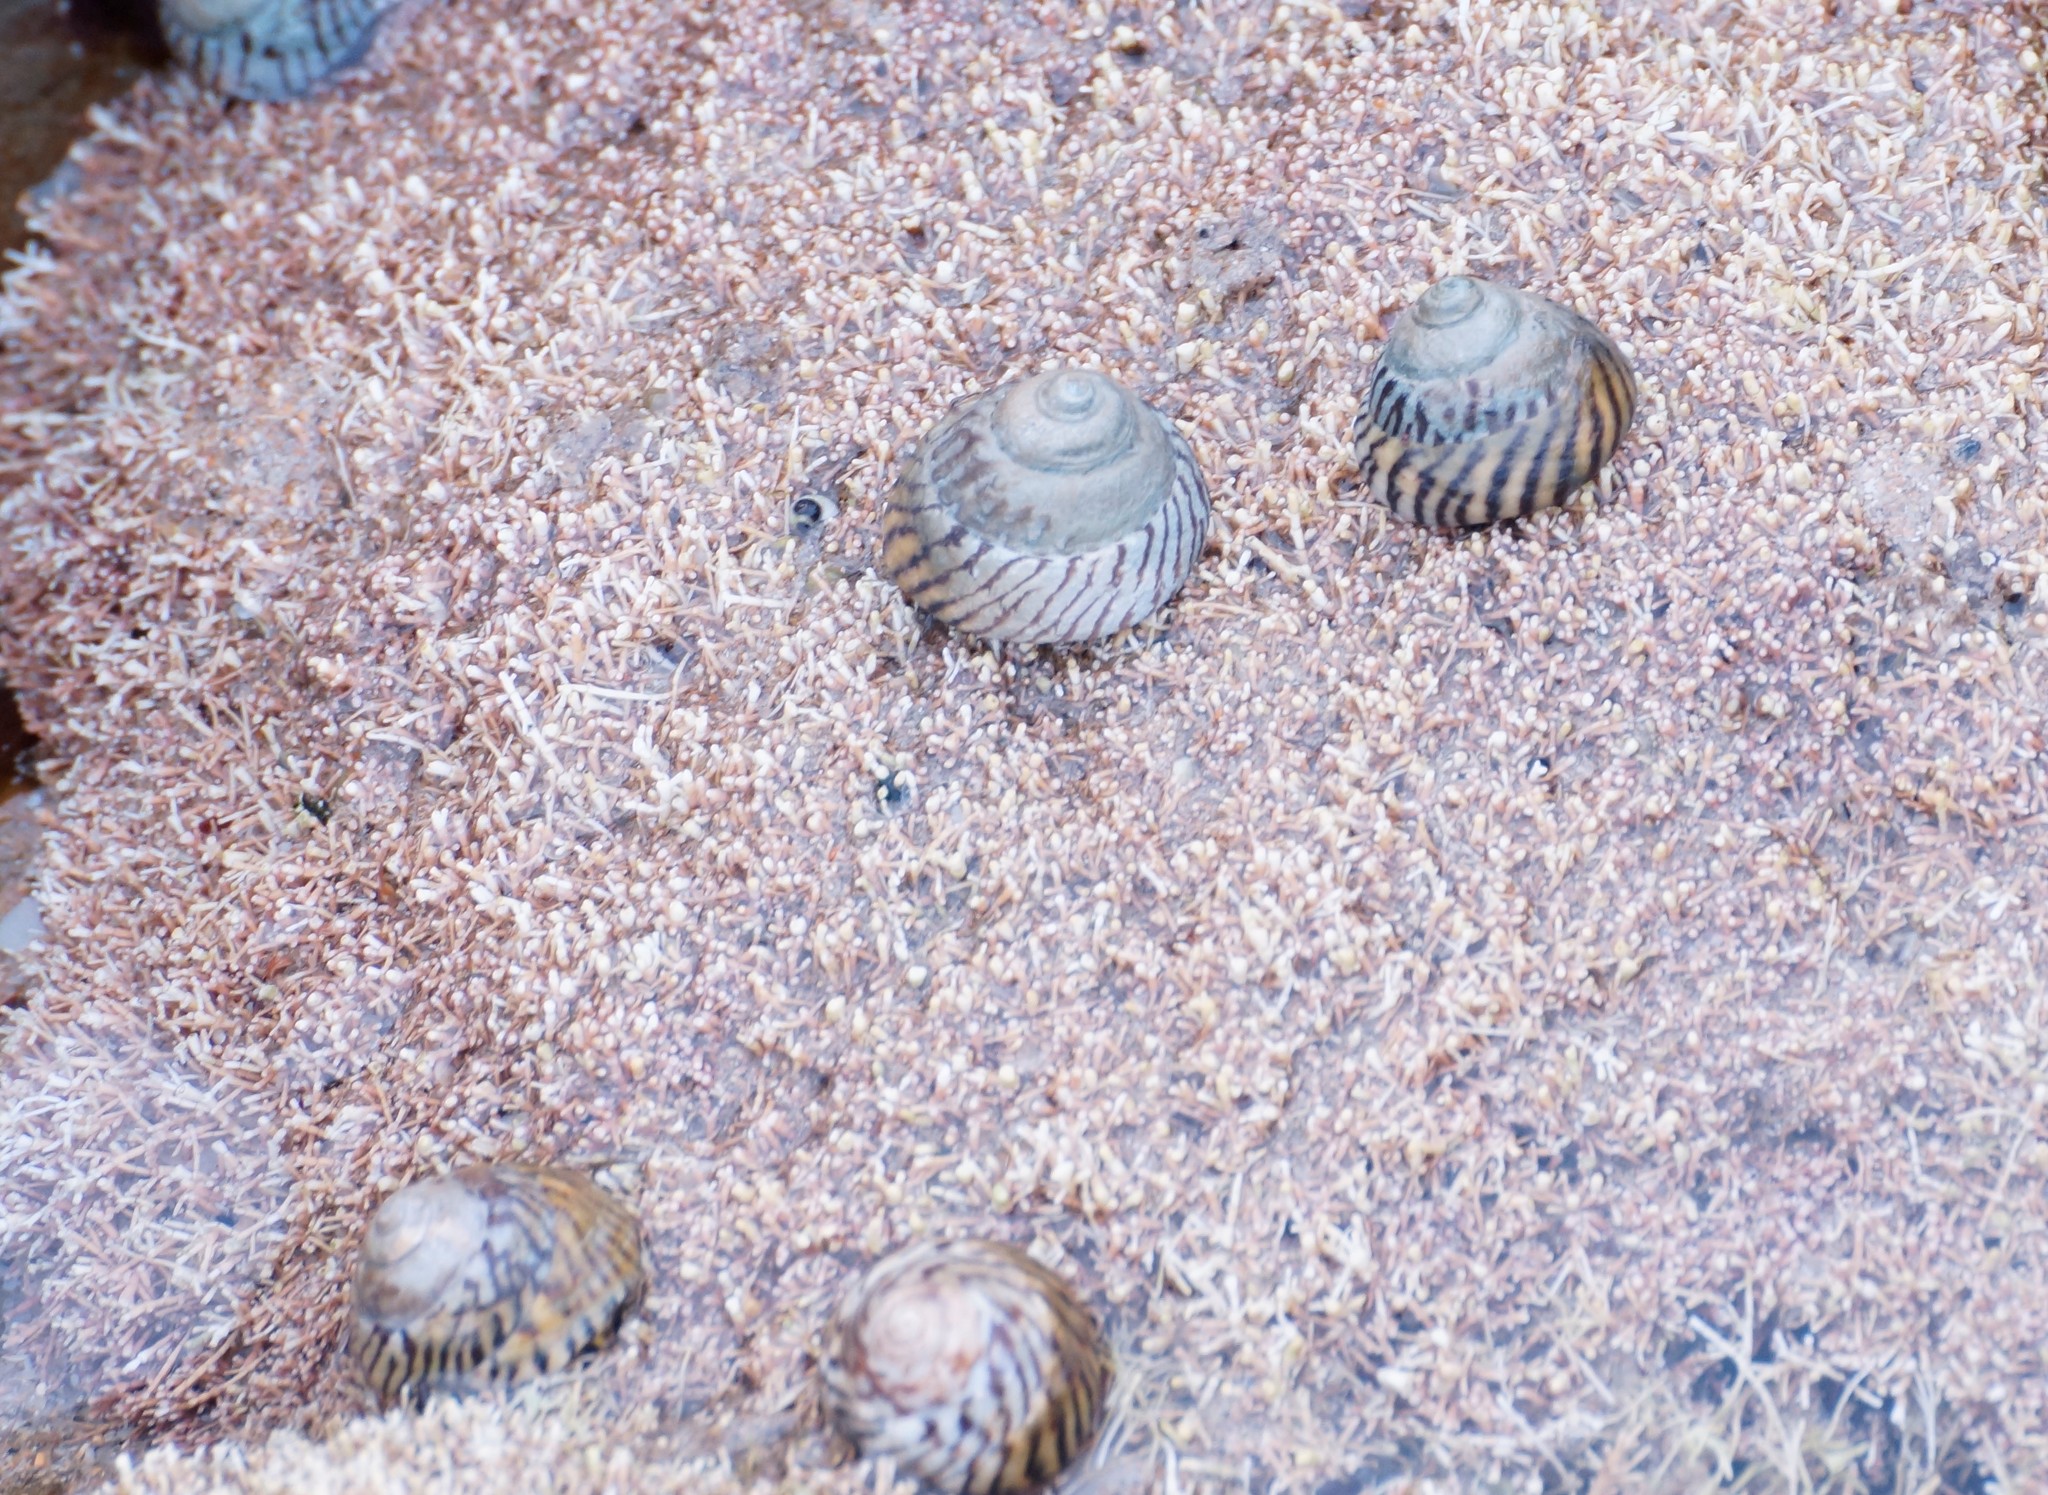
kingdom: Animalia
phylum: Mollusca
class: Gastropoda
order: Littorinimorpha
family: Littorinidae
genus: Bembicium
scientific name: Bembicium nanum
